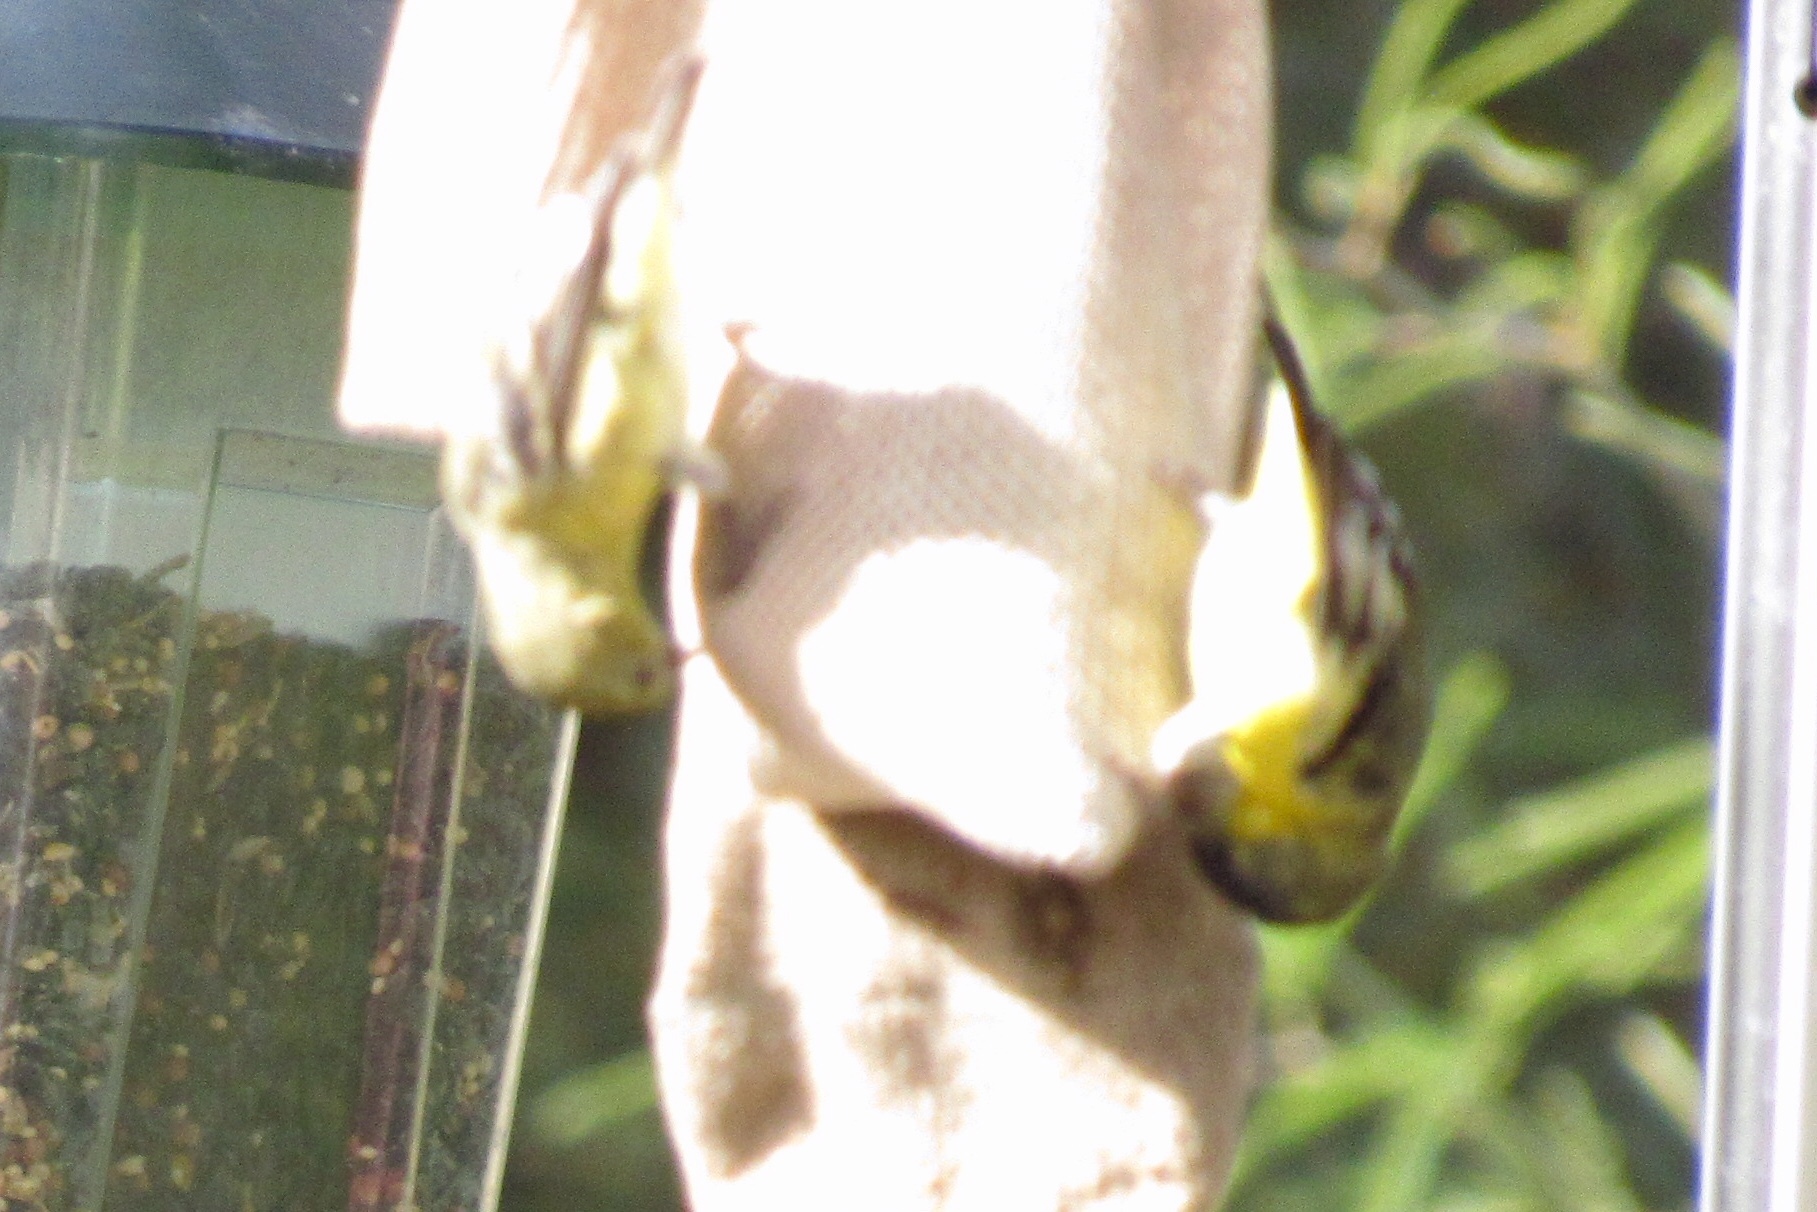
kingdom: Animalia
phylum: Chordata
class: Aves
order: Passeriformes
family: Fringillidae
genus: Spinus
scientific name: Spinus psaltria
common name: Lesser goldfinch
